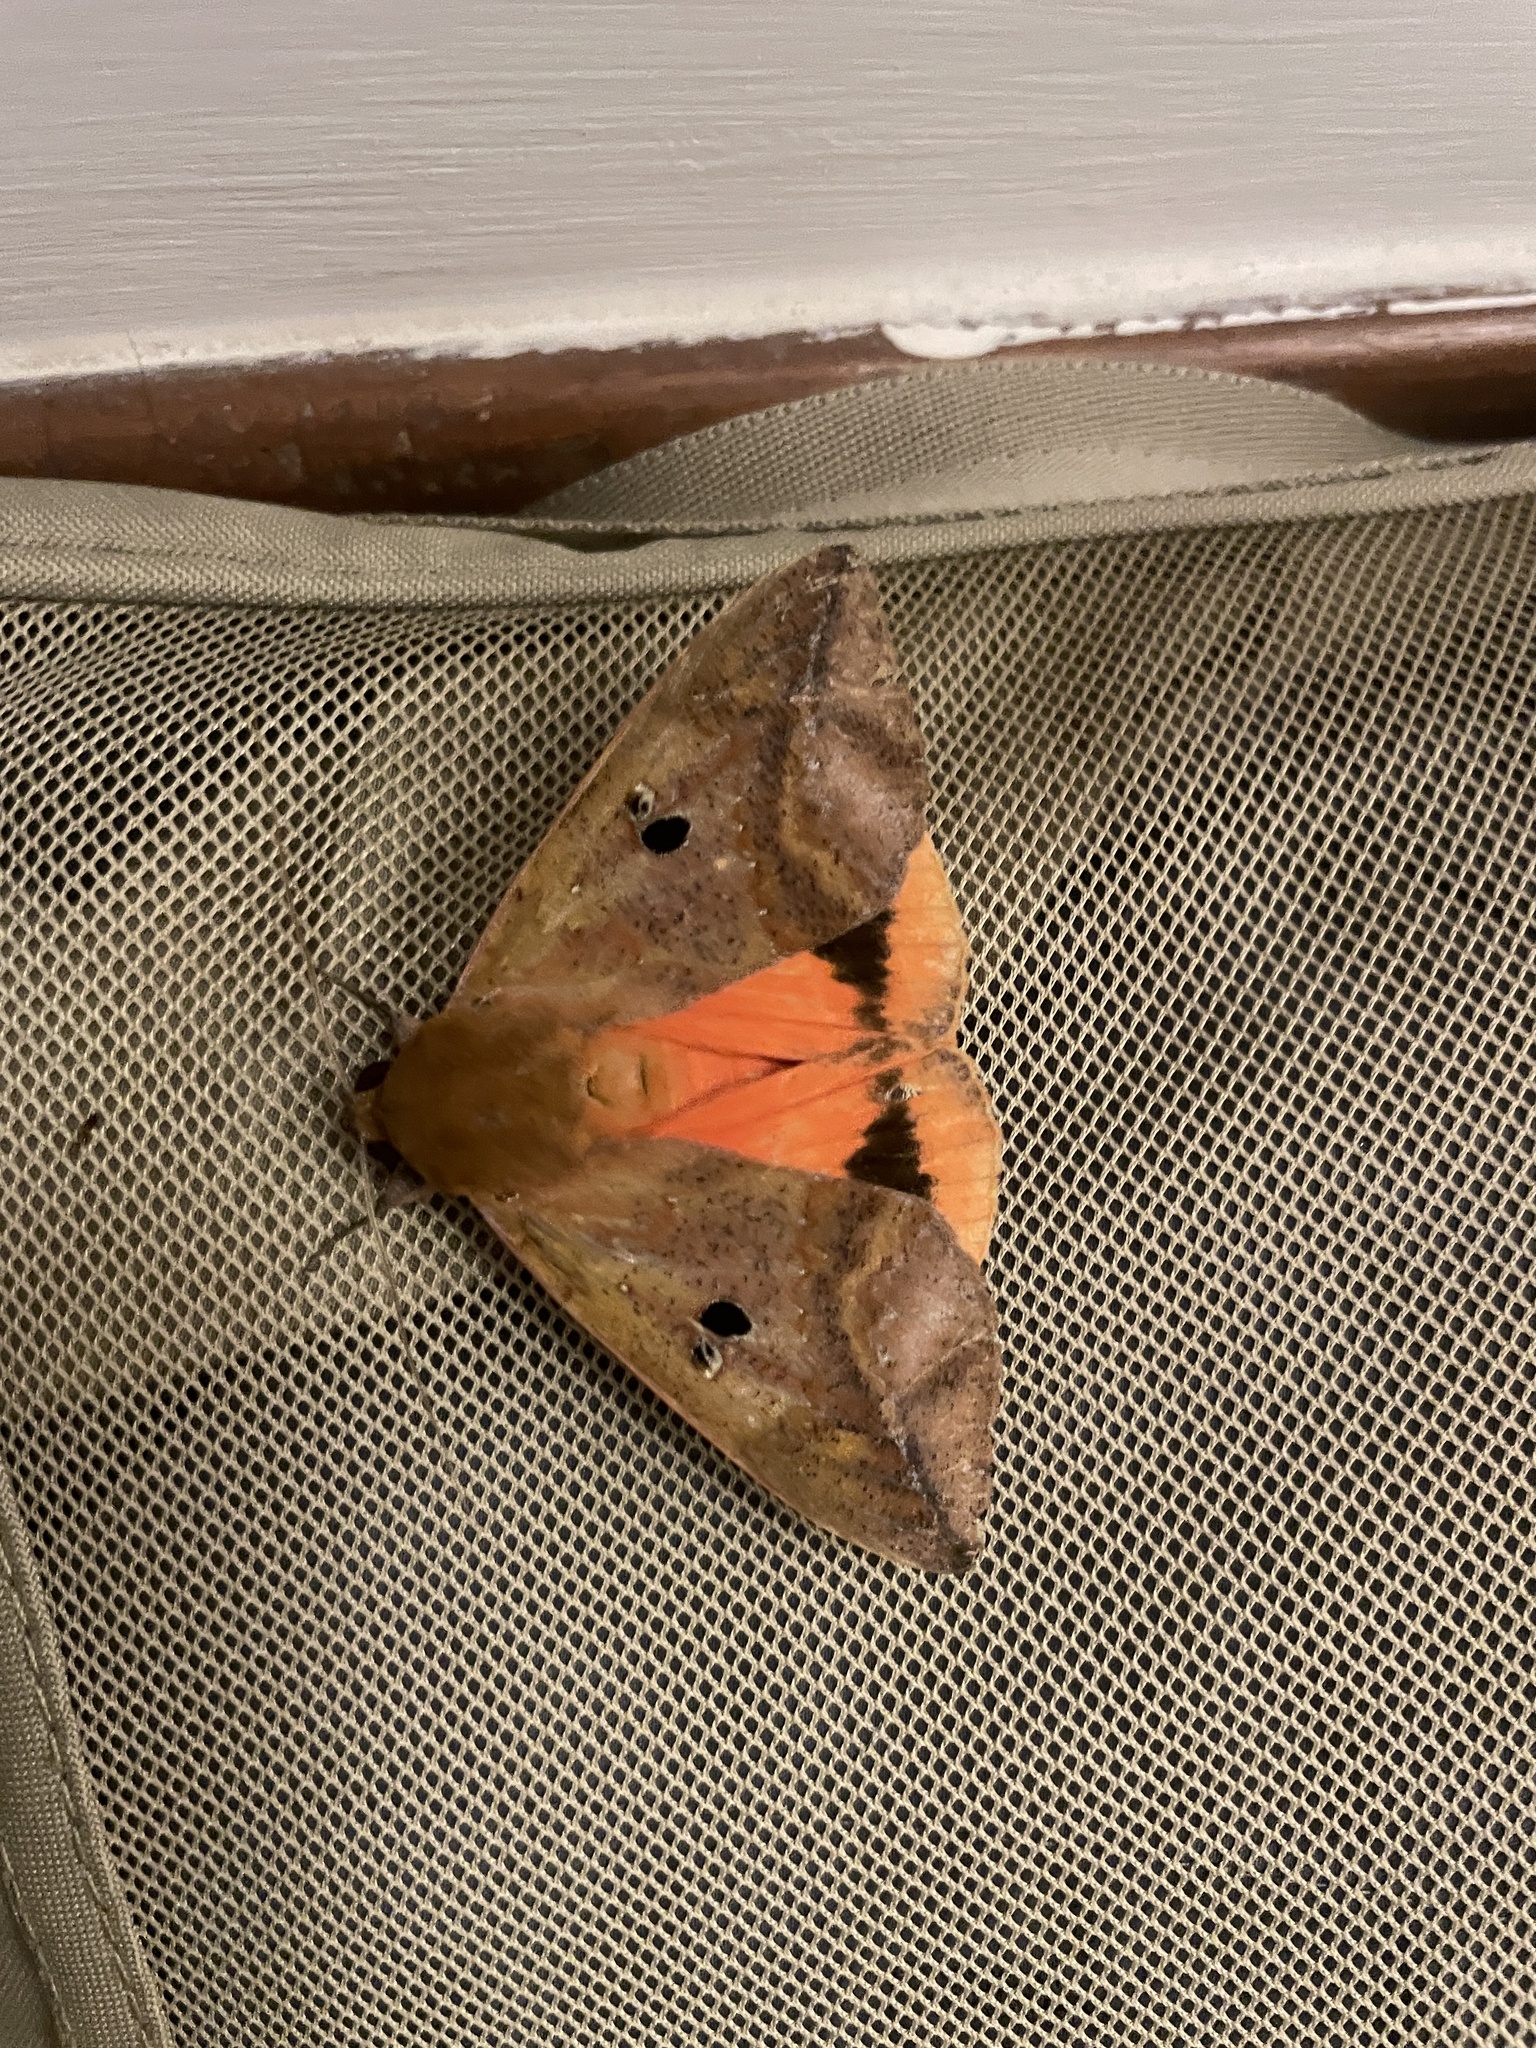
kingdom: Animalia
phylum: Arthropoda
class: Insecta
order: Lepidoptera
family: Erebidae
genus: Thyas
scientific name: Thyas honesta
